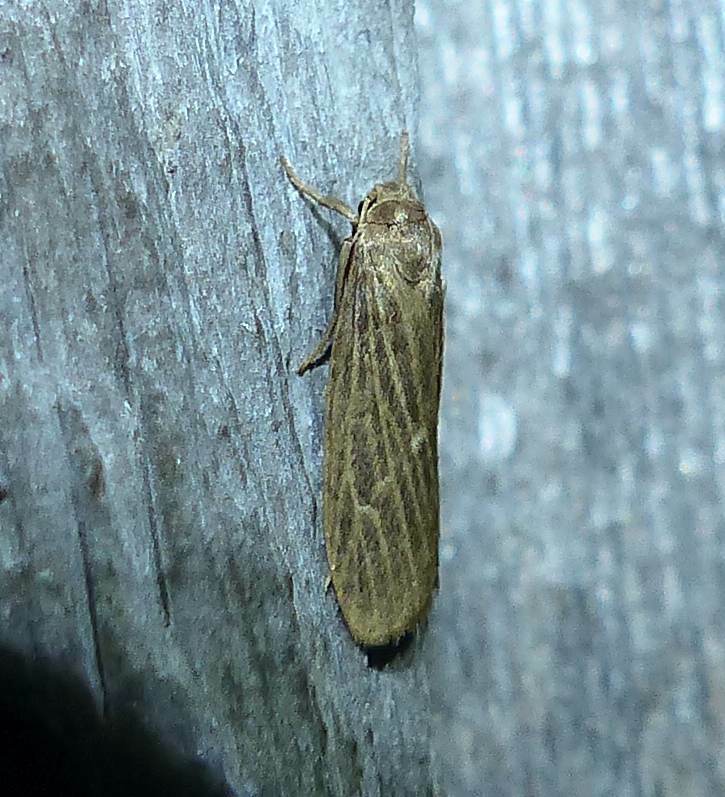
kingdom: Animalia
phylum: Arthropoda
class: Insecta
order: Lepidoptera
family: Erebidae
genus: Crambidia
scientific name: Crambidia pallida
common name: Pale lichen moth
